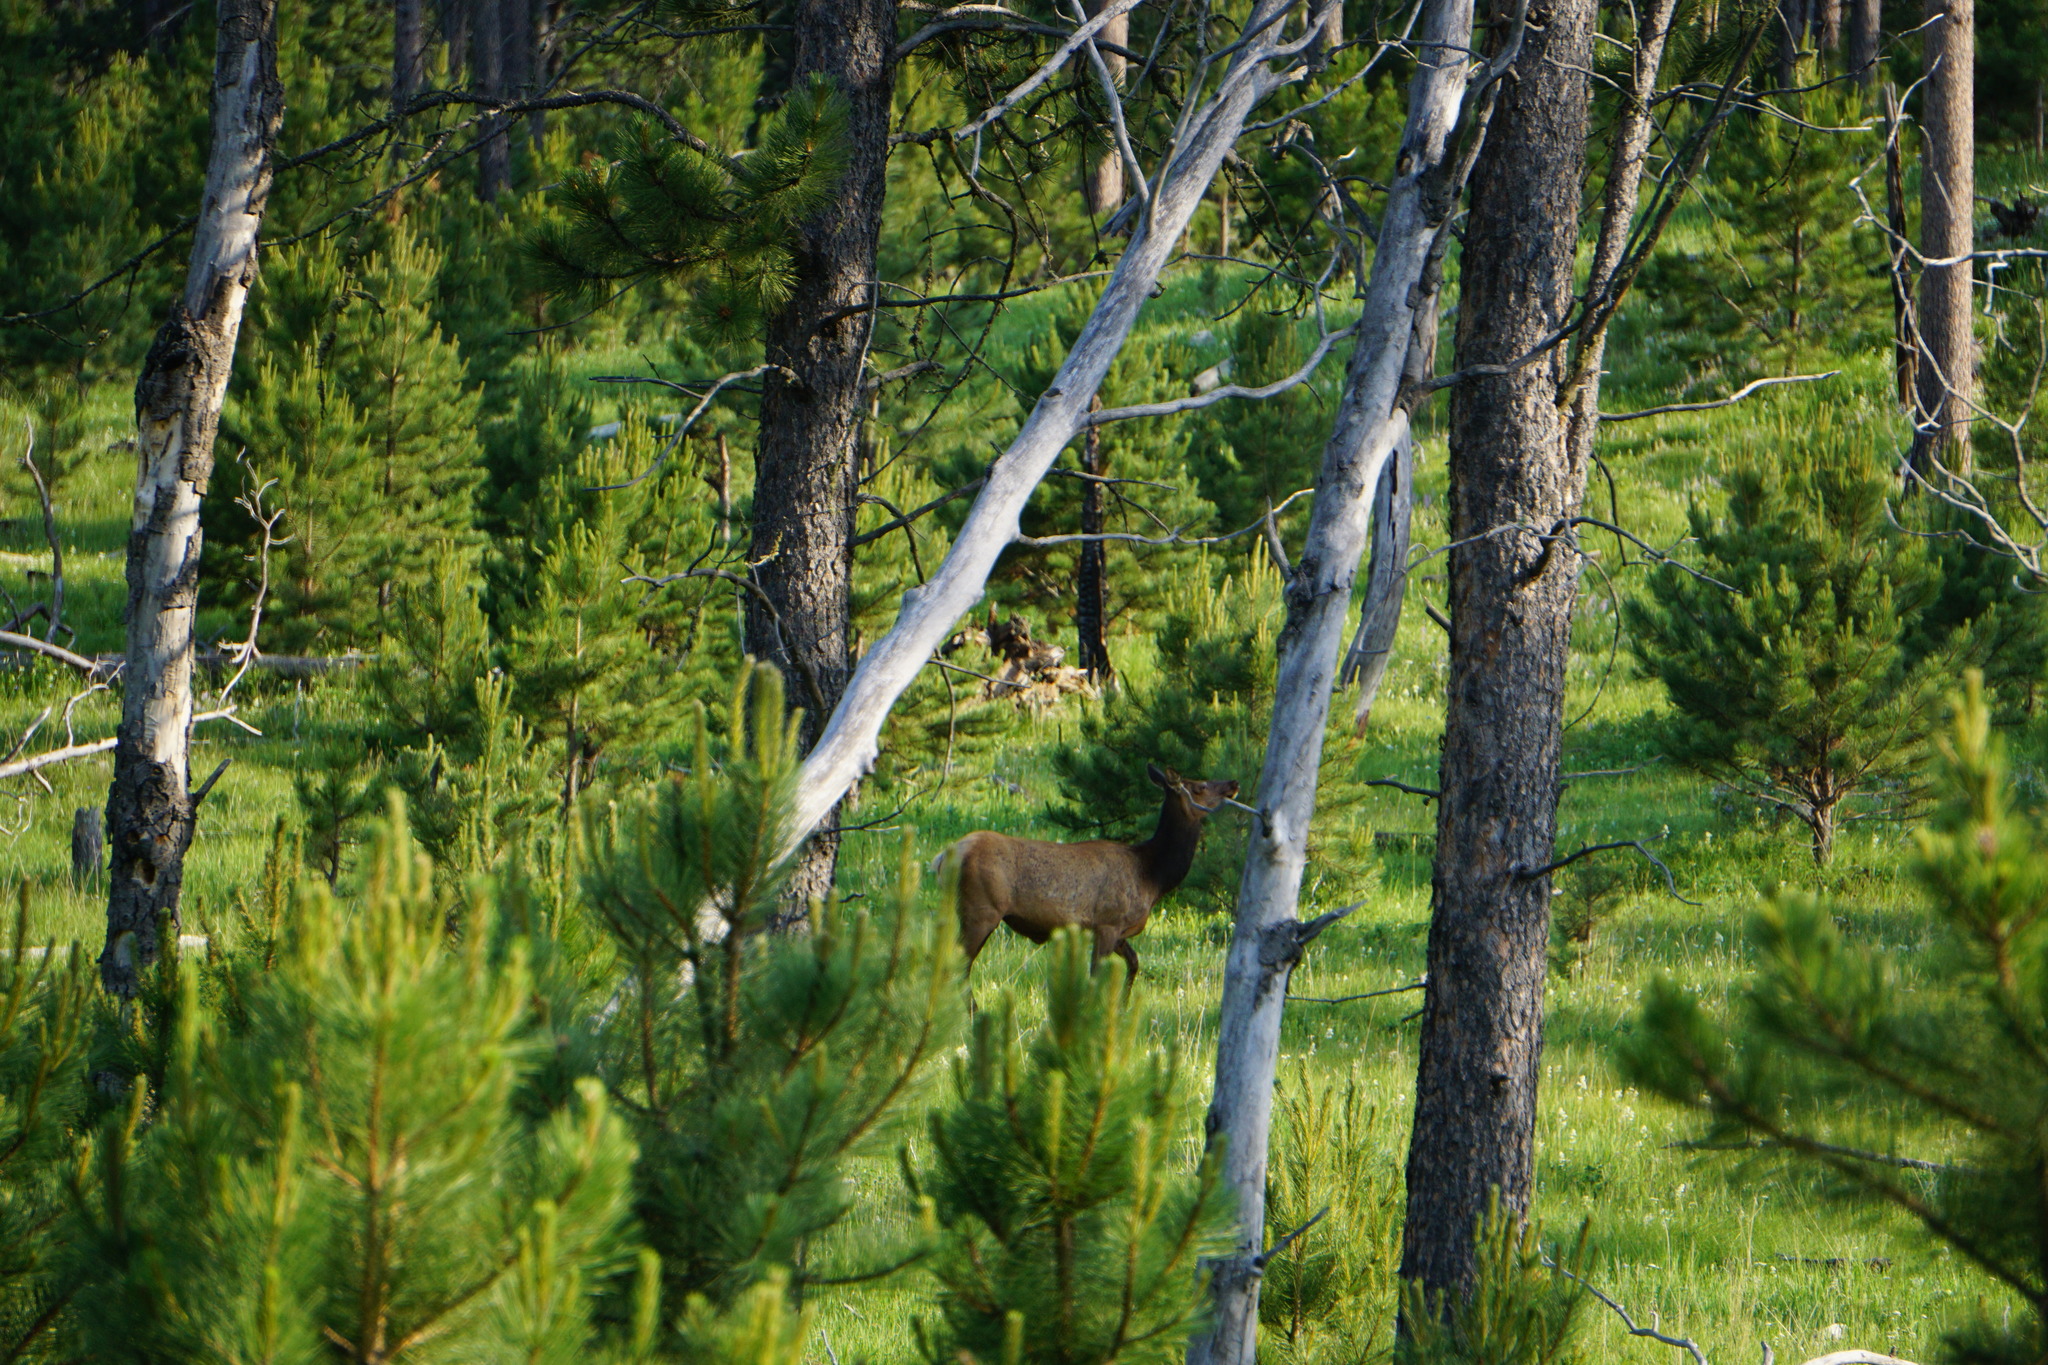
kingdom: Animalia
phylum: Chordata
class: Mammalia
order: Artiodactyla
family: Cervidae
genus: Cervus
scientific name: Cervus elaphus
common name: Red deer
